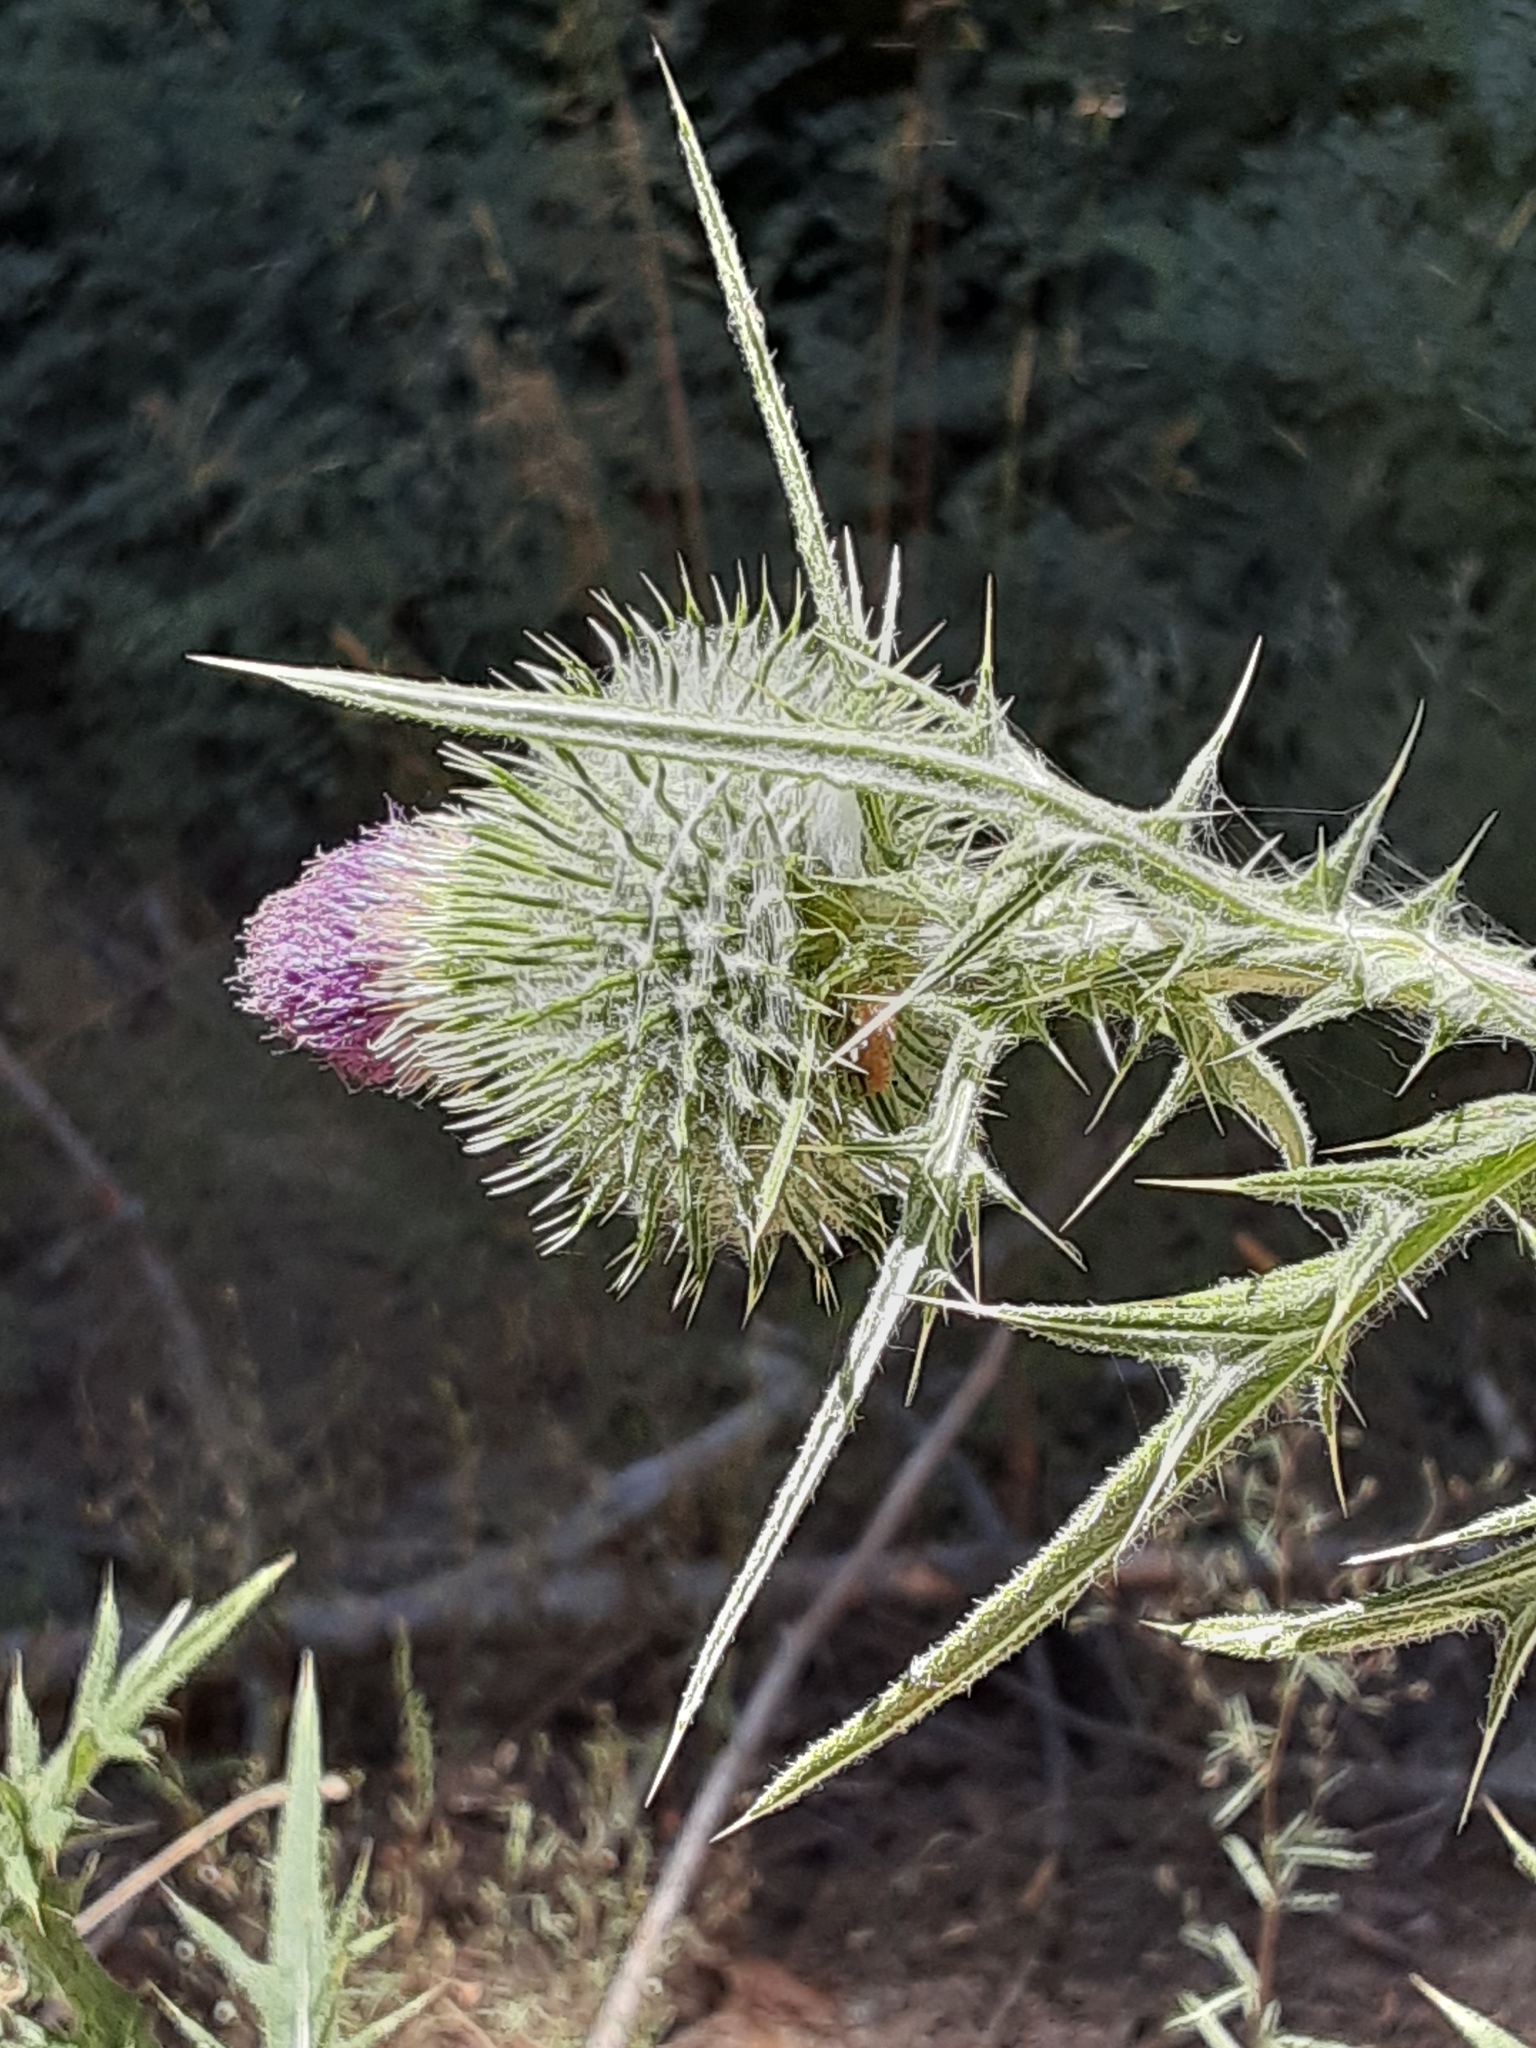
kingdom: Plantae
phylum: Tracheophyta
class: Magnoliopsida
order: Asterales
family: Asteraceae
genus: Cirsium
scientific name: Cirsium vulgare
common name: Bull thistle
